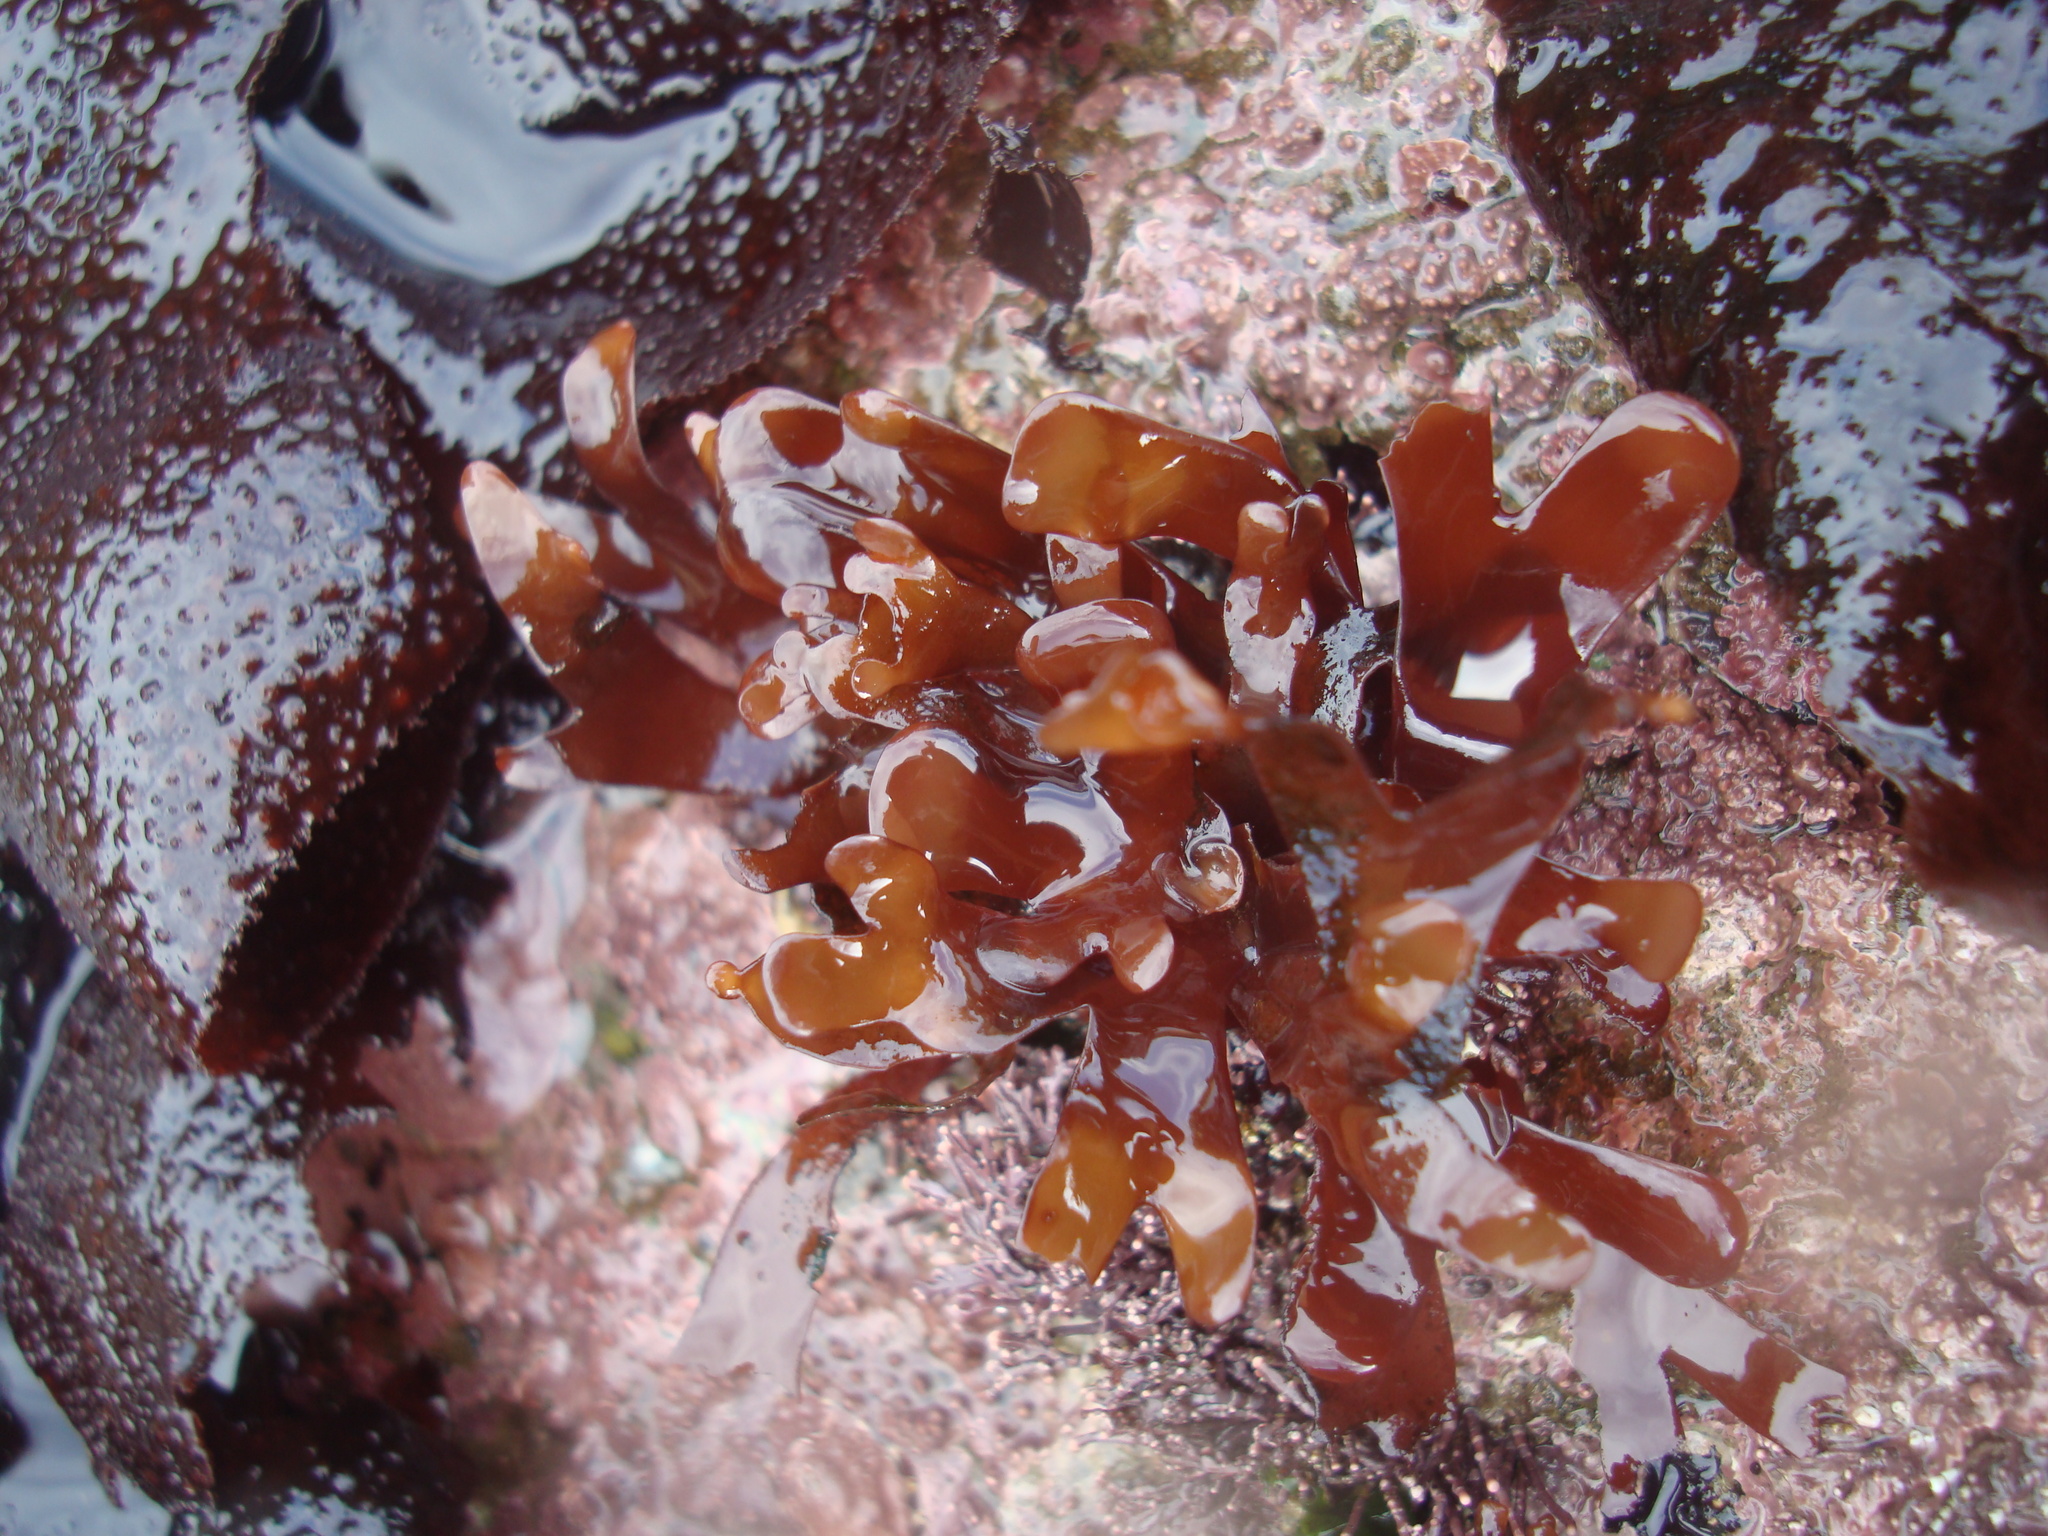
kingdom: Plantae
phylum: Rhodophyta
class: Florideophyceae
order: Rhodymeniales
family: Rhodymeniaceae
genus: Rhodymenia
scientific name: Rhodymenia skottsbergi
